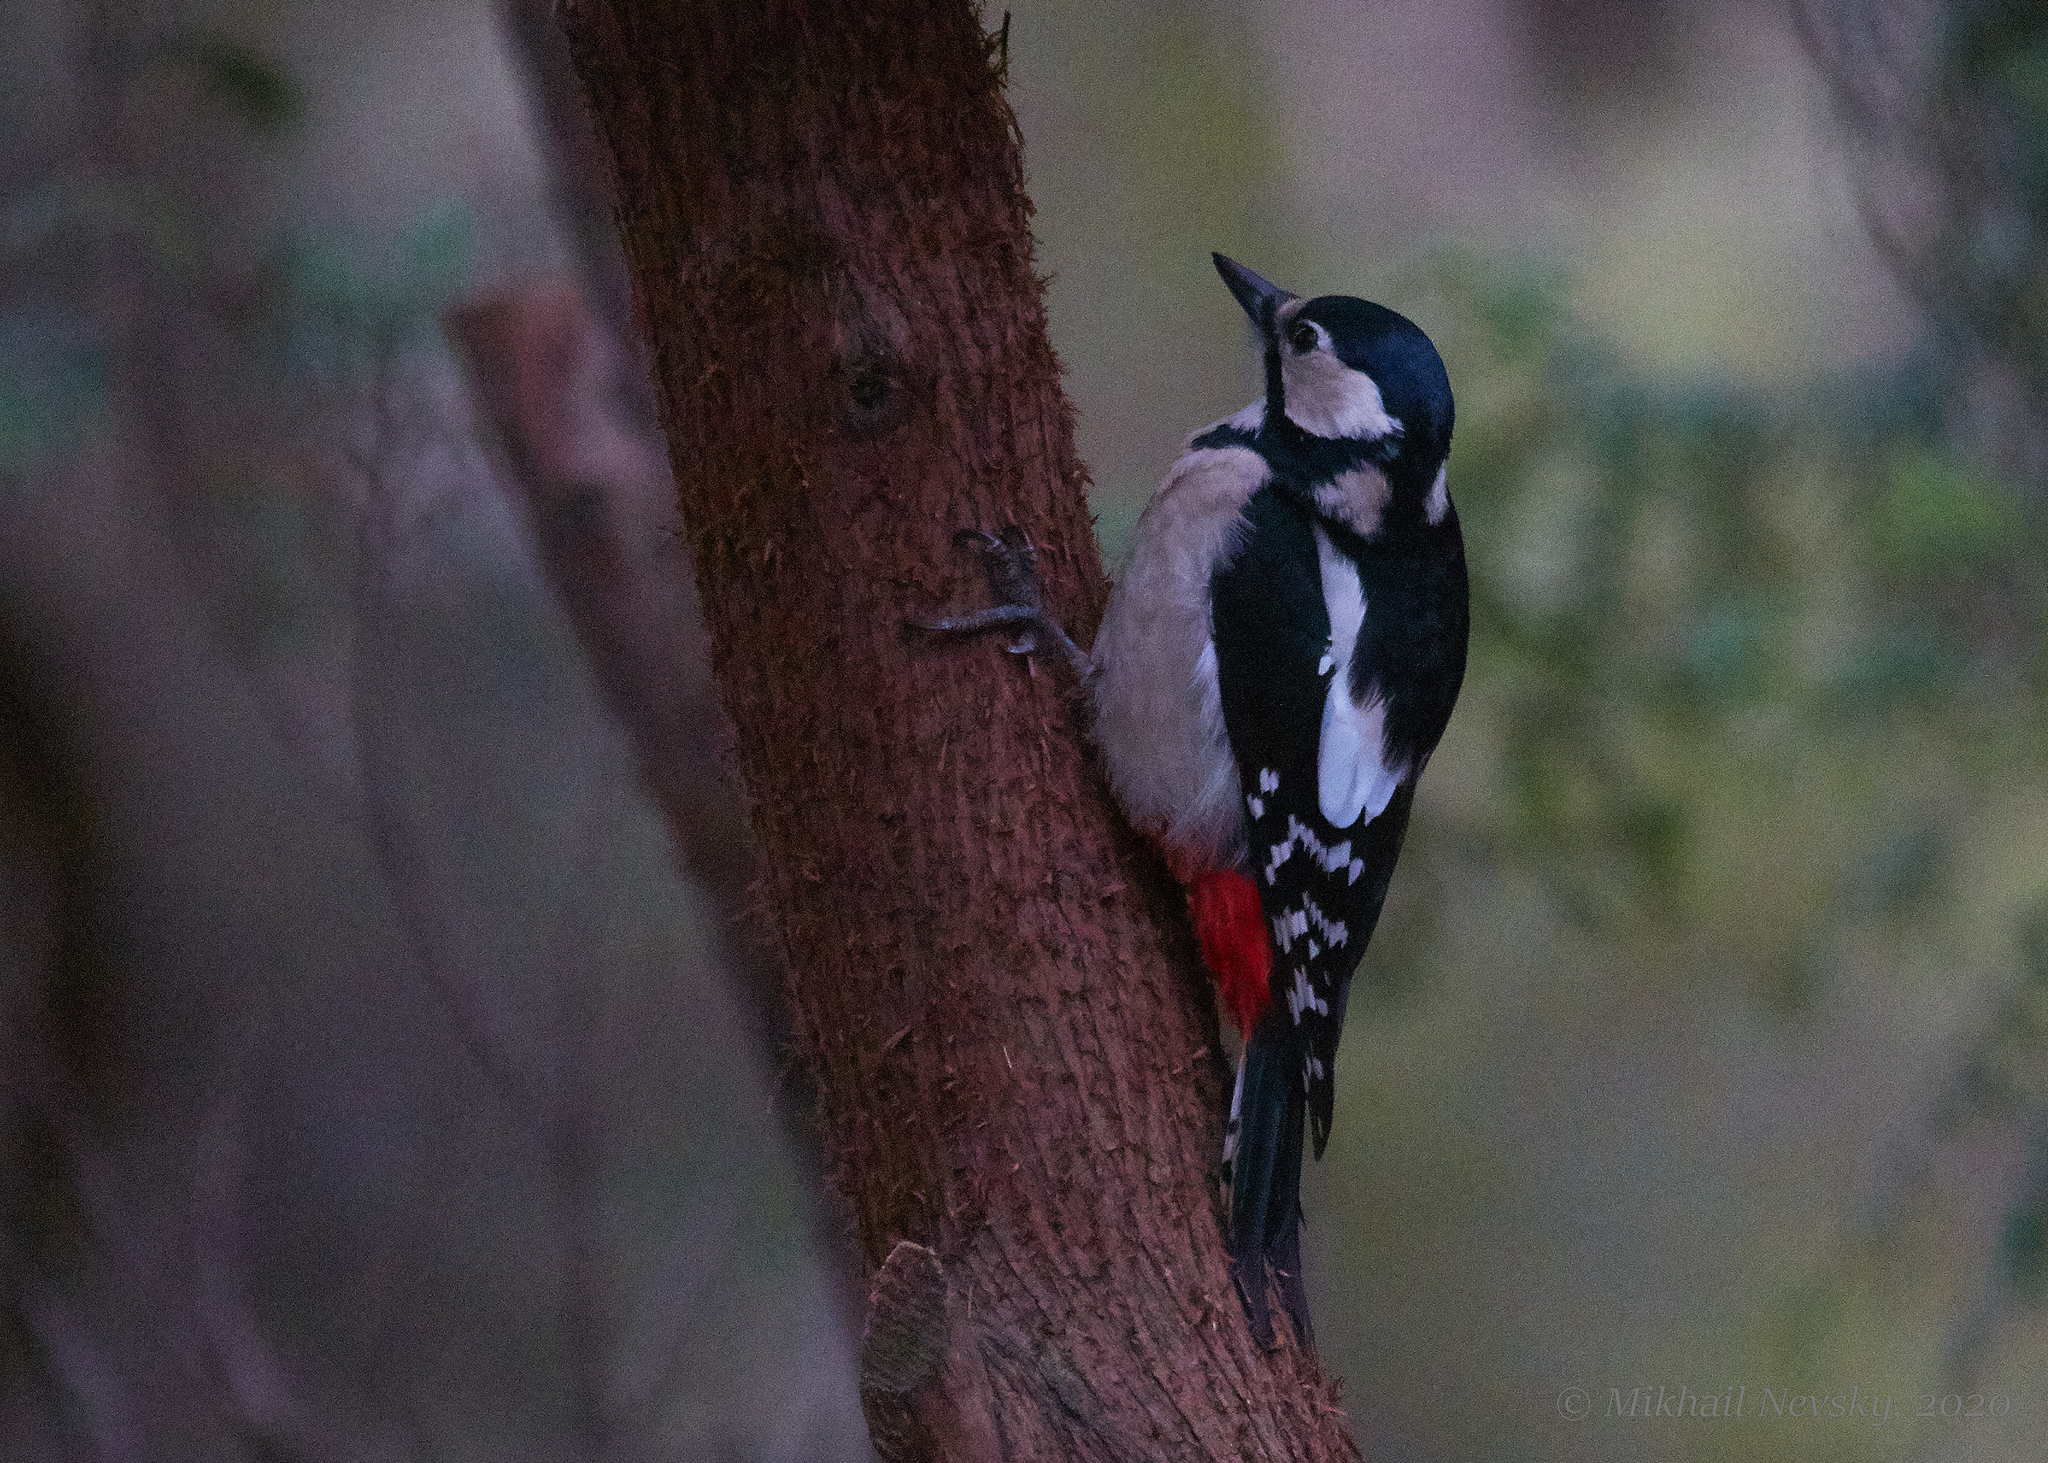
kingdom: Animalia
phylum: Chordata
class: Aves
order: Piciformes
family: Picidae
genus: Dendrocopos
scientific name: Dendrocopos major
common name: Great spotted woodpecker
